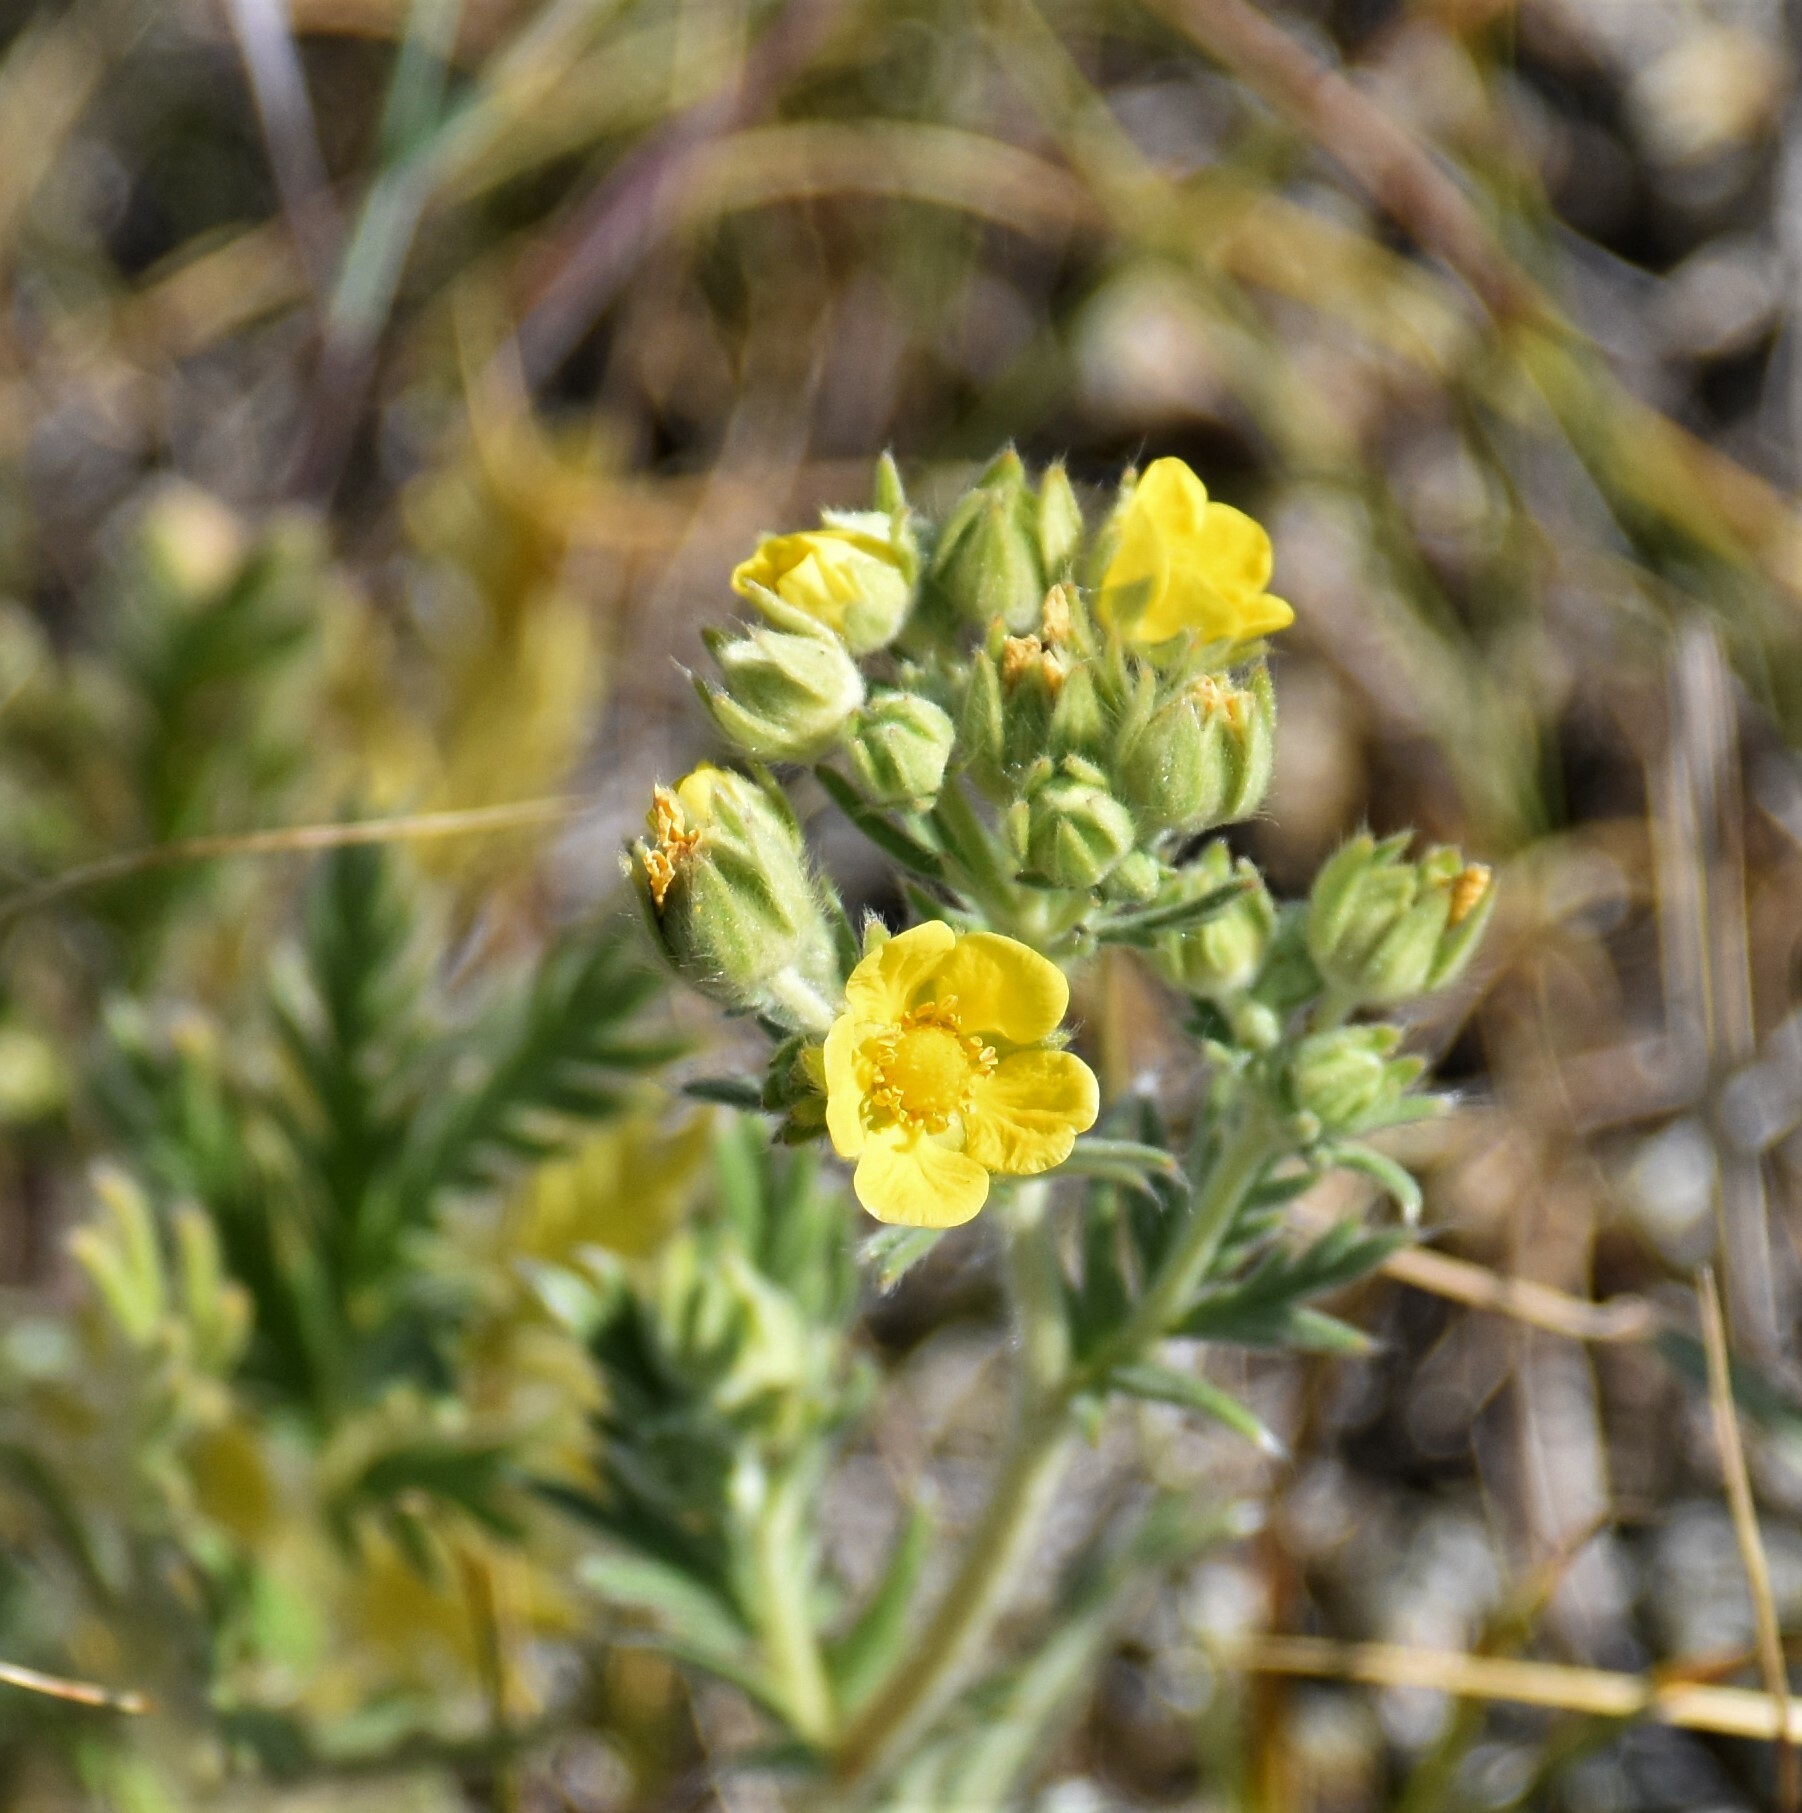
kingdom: Plantae
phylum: Tracheophyta
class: Magnoliopsida
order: Rosales
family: Rosaceae
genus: Potentilla
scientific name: Potentilla pensylvanica
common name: Pennsylvania cinquefoil
